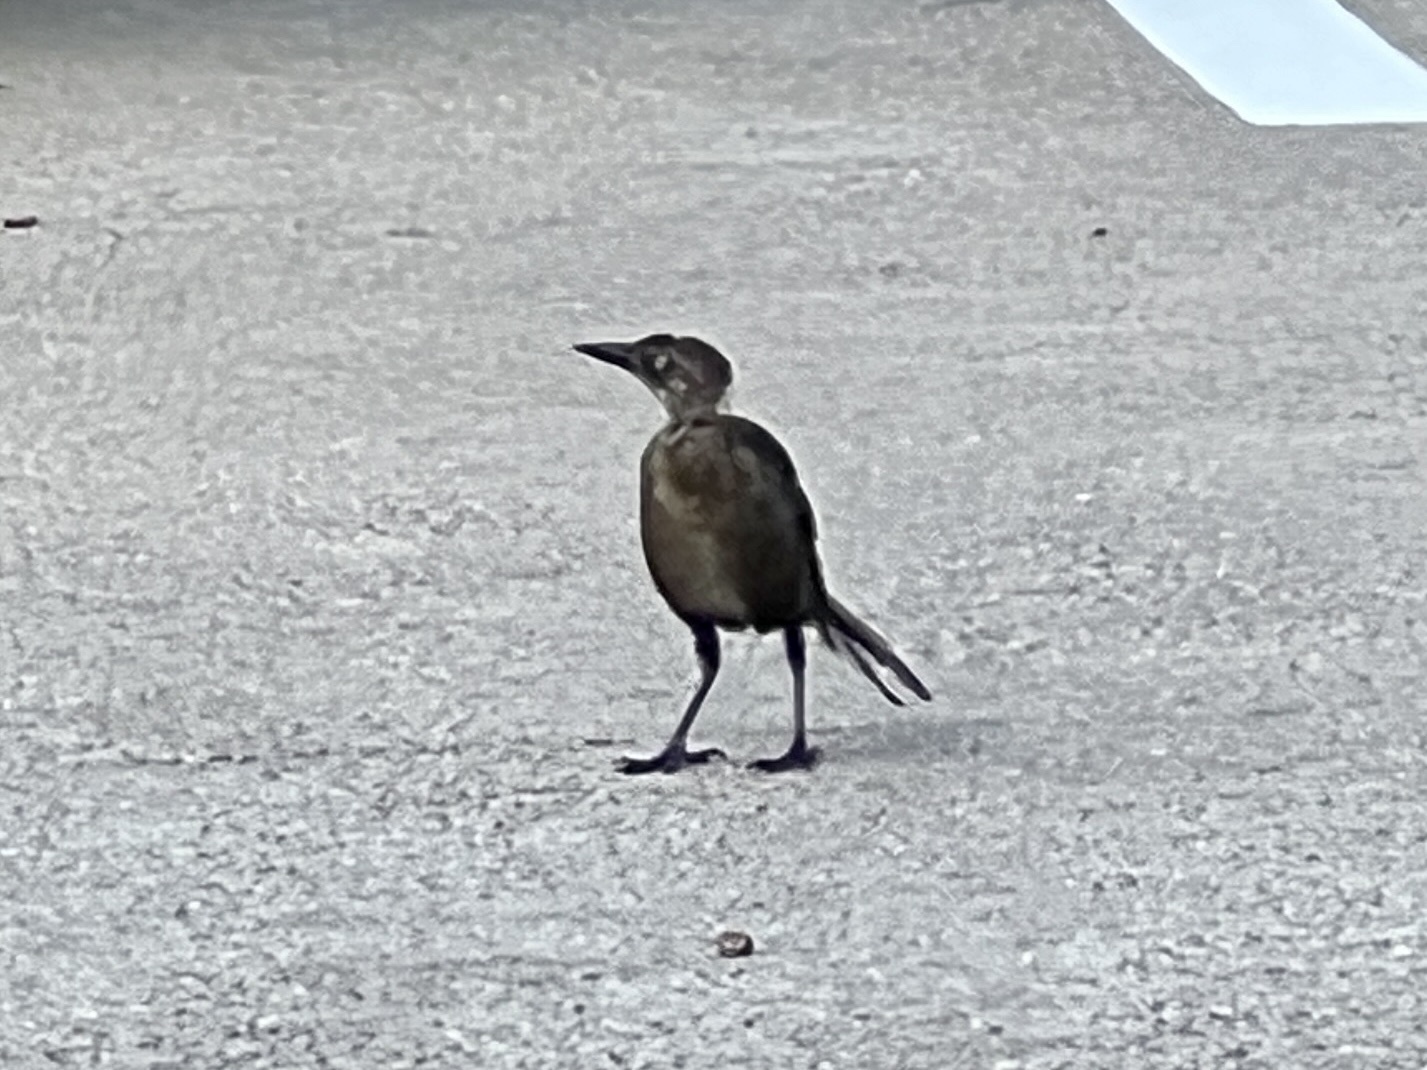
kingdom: Animalia
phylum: Chordata
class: Aves
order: Passeriformes
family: Icteridae
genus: Quiscalus
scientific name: Quiscalus mexicanus
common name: Great-tailed grackle
